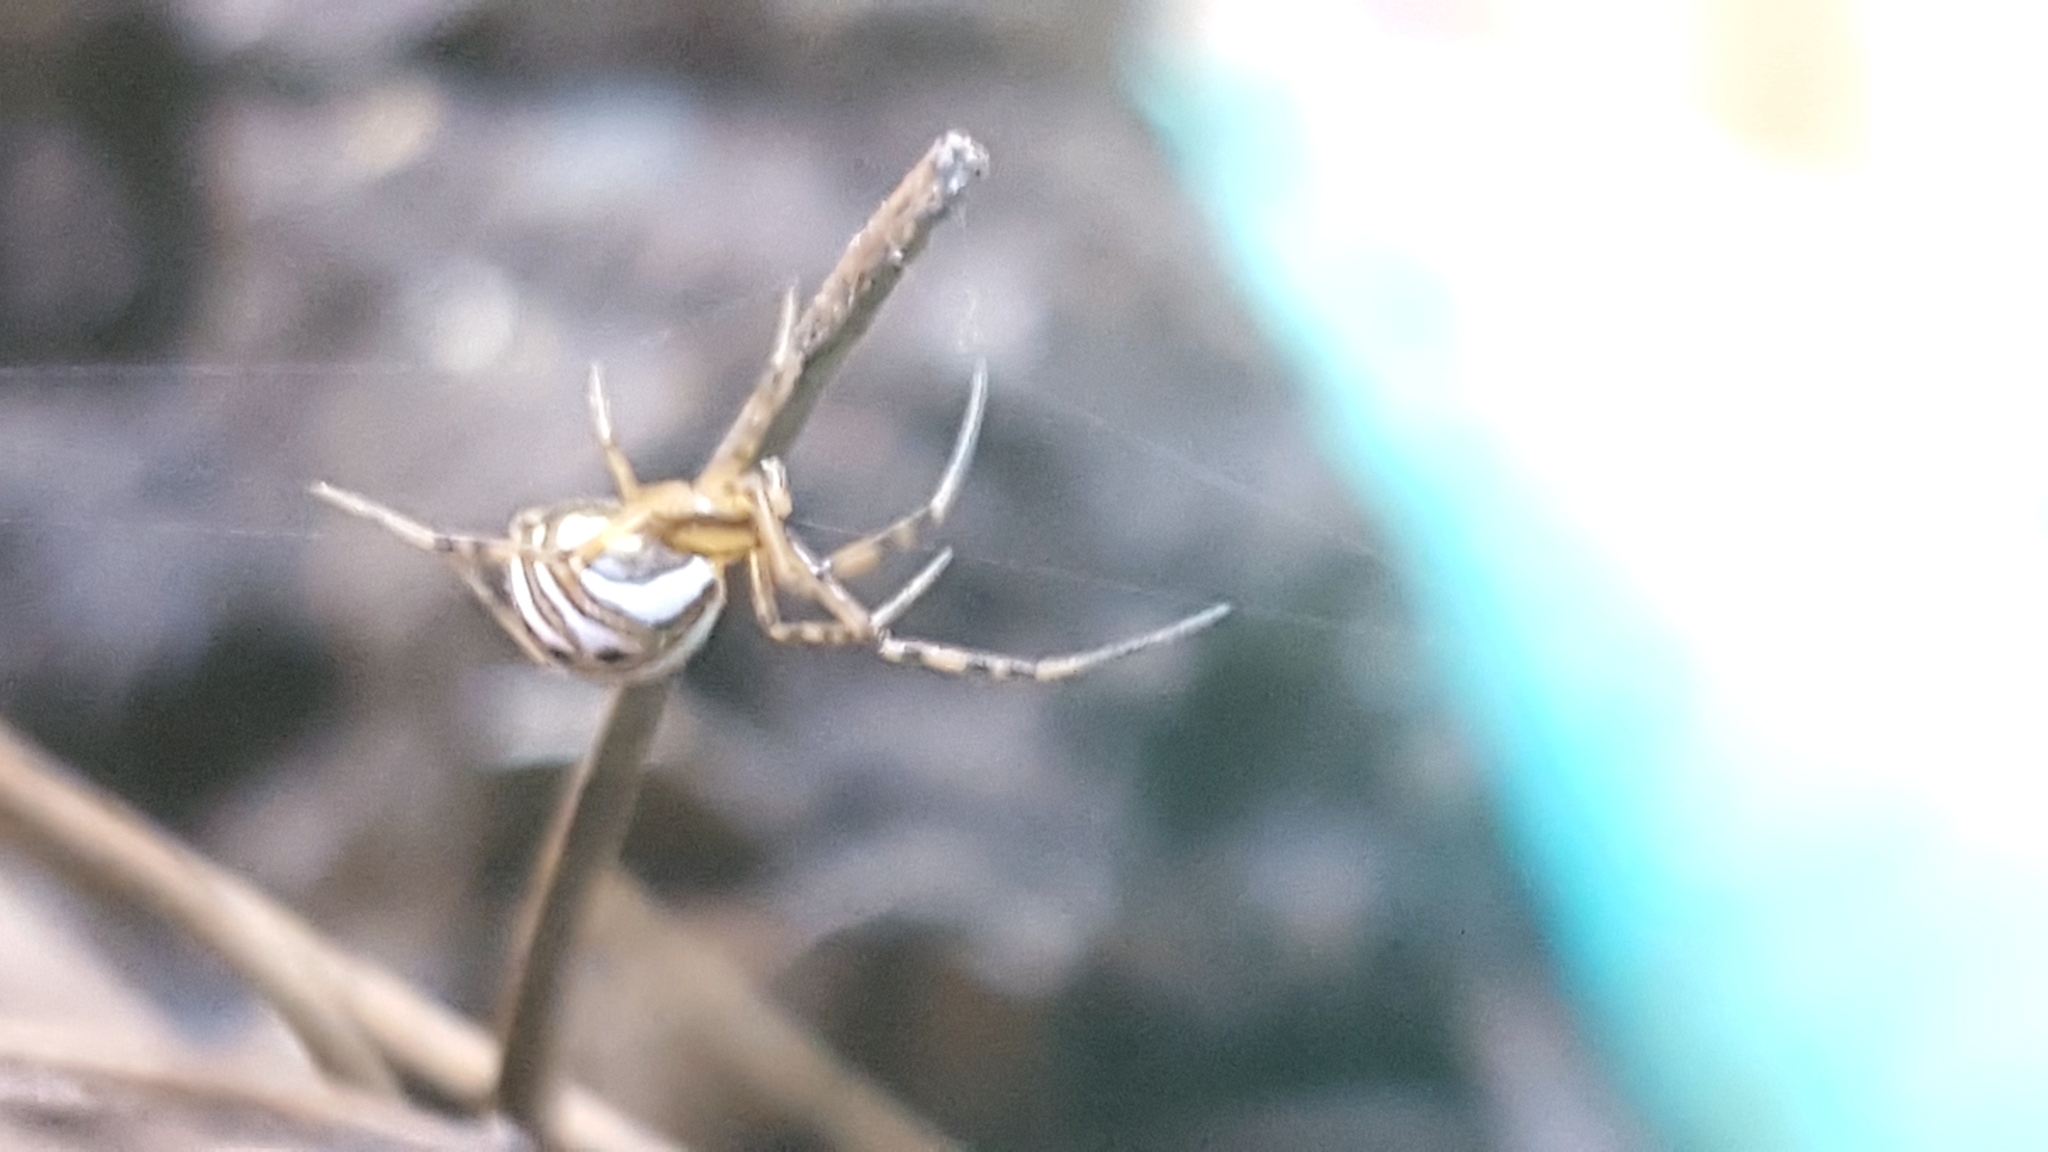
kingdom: Animalia
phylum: Arthropoda
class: Arachnida
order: Araneae
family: Theridiidae
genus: Latrodectus
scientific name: Latrodectus hesperus
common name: Western black widow
